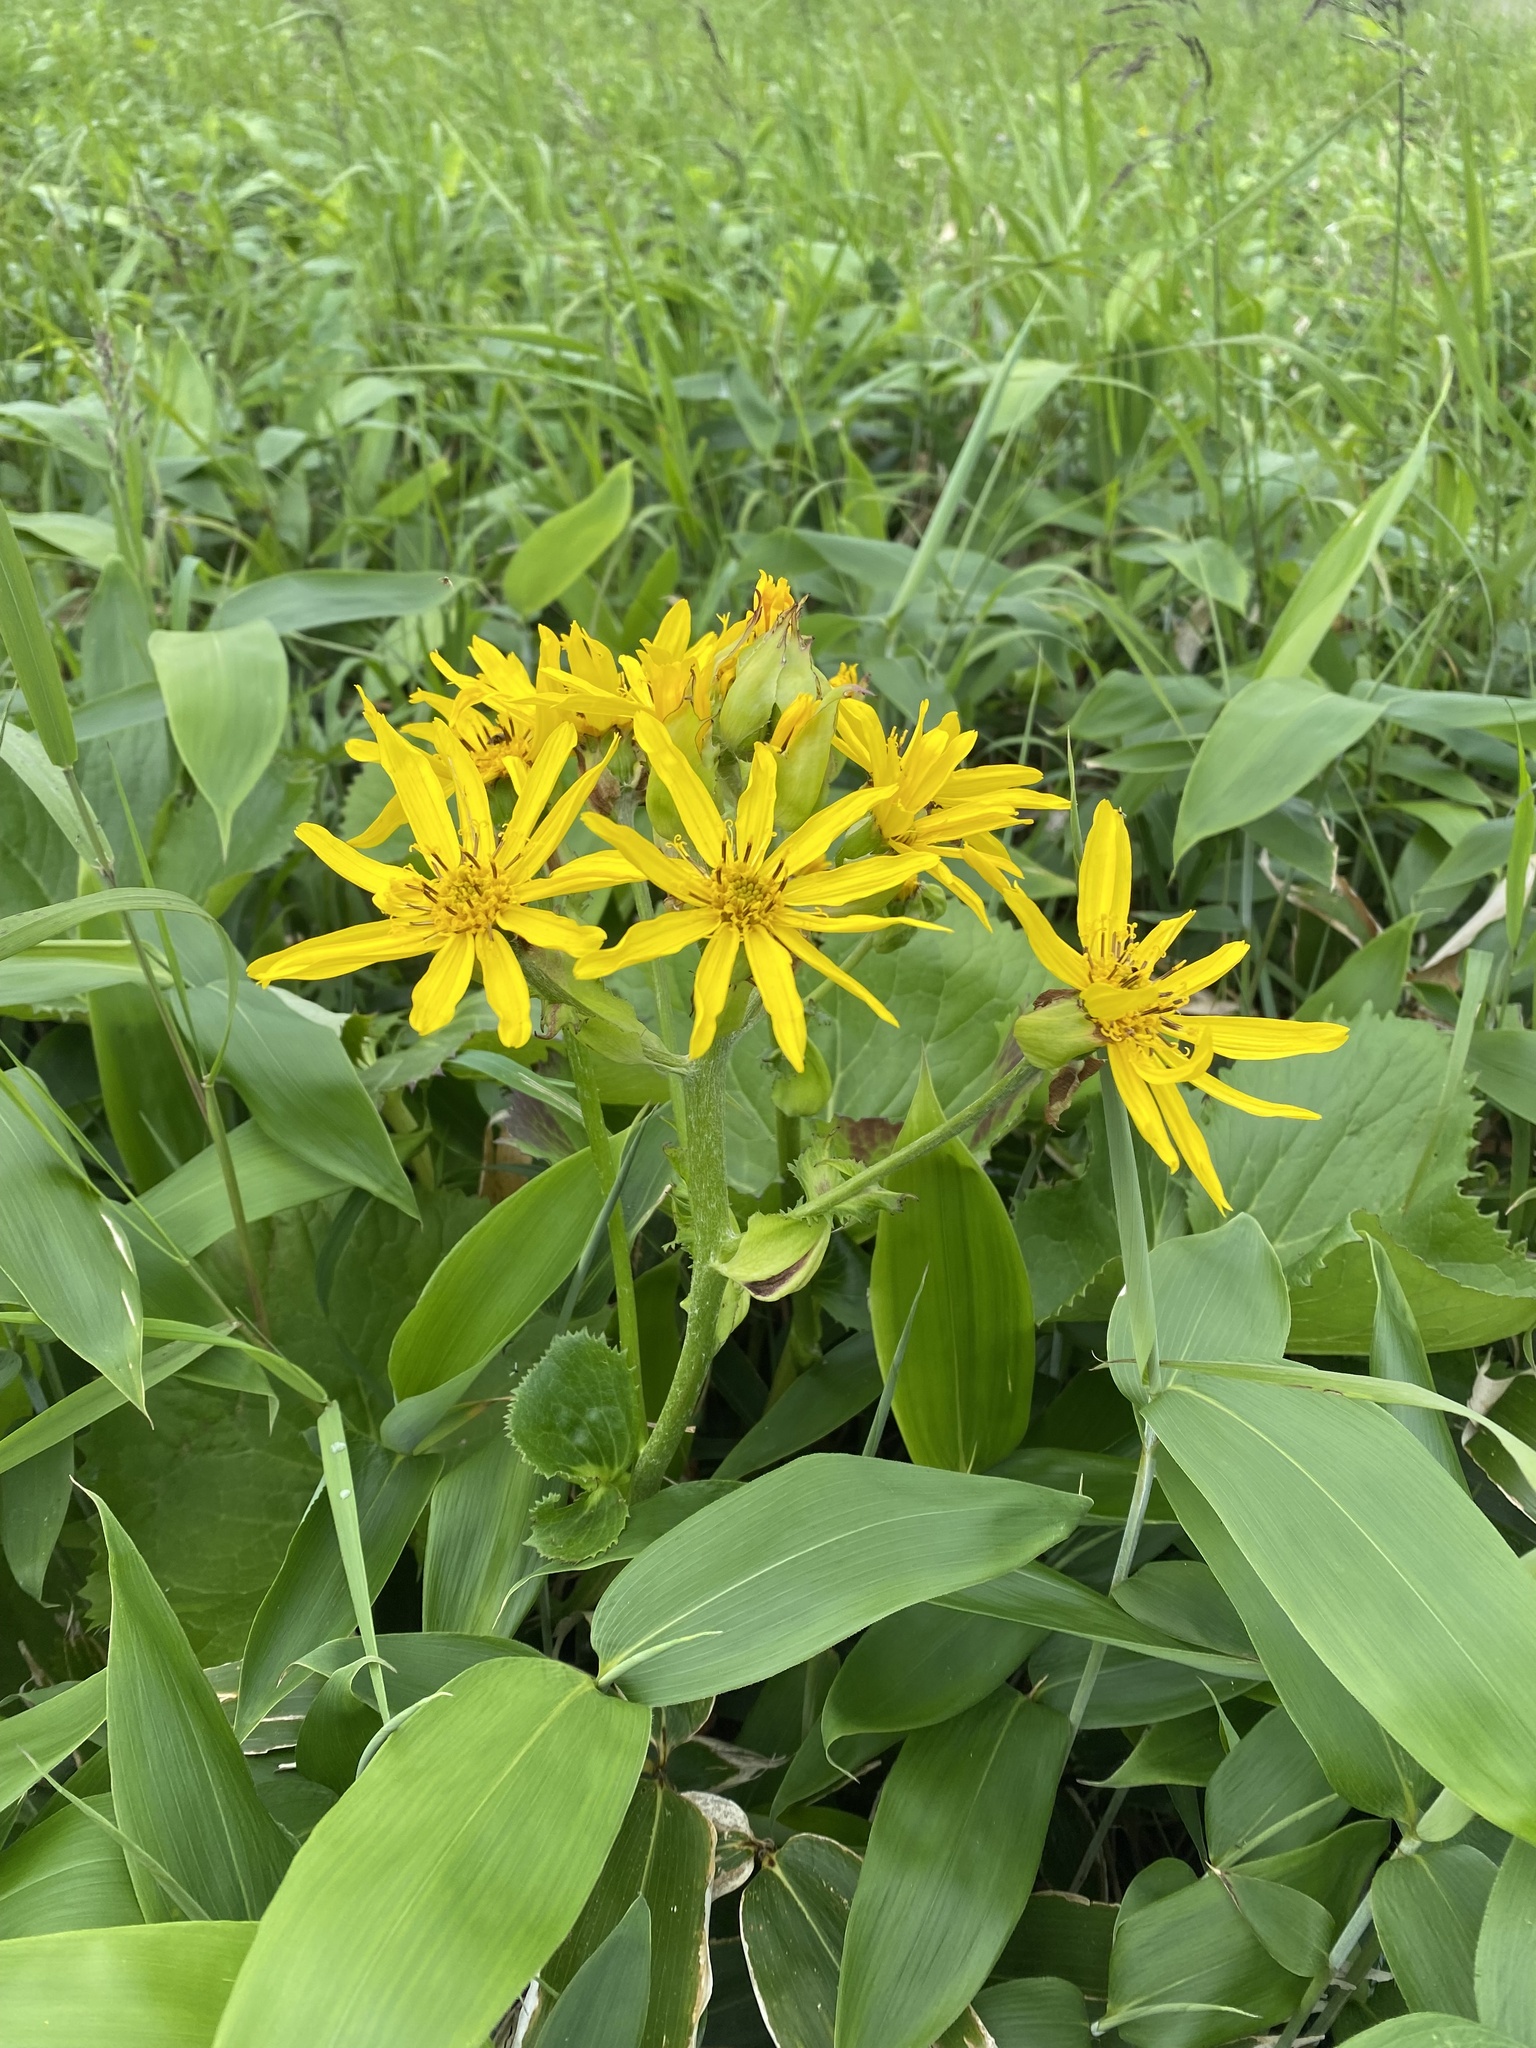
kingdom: Plantae
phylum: Tracheophyta
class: Magnoliopsida
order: Asterales
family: Asteraceae
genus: Ligularia
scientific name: Ligularia hodgsonii
